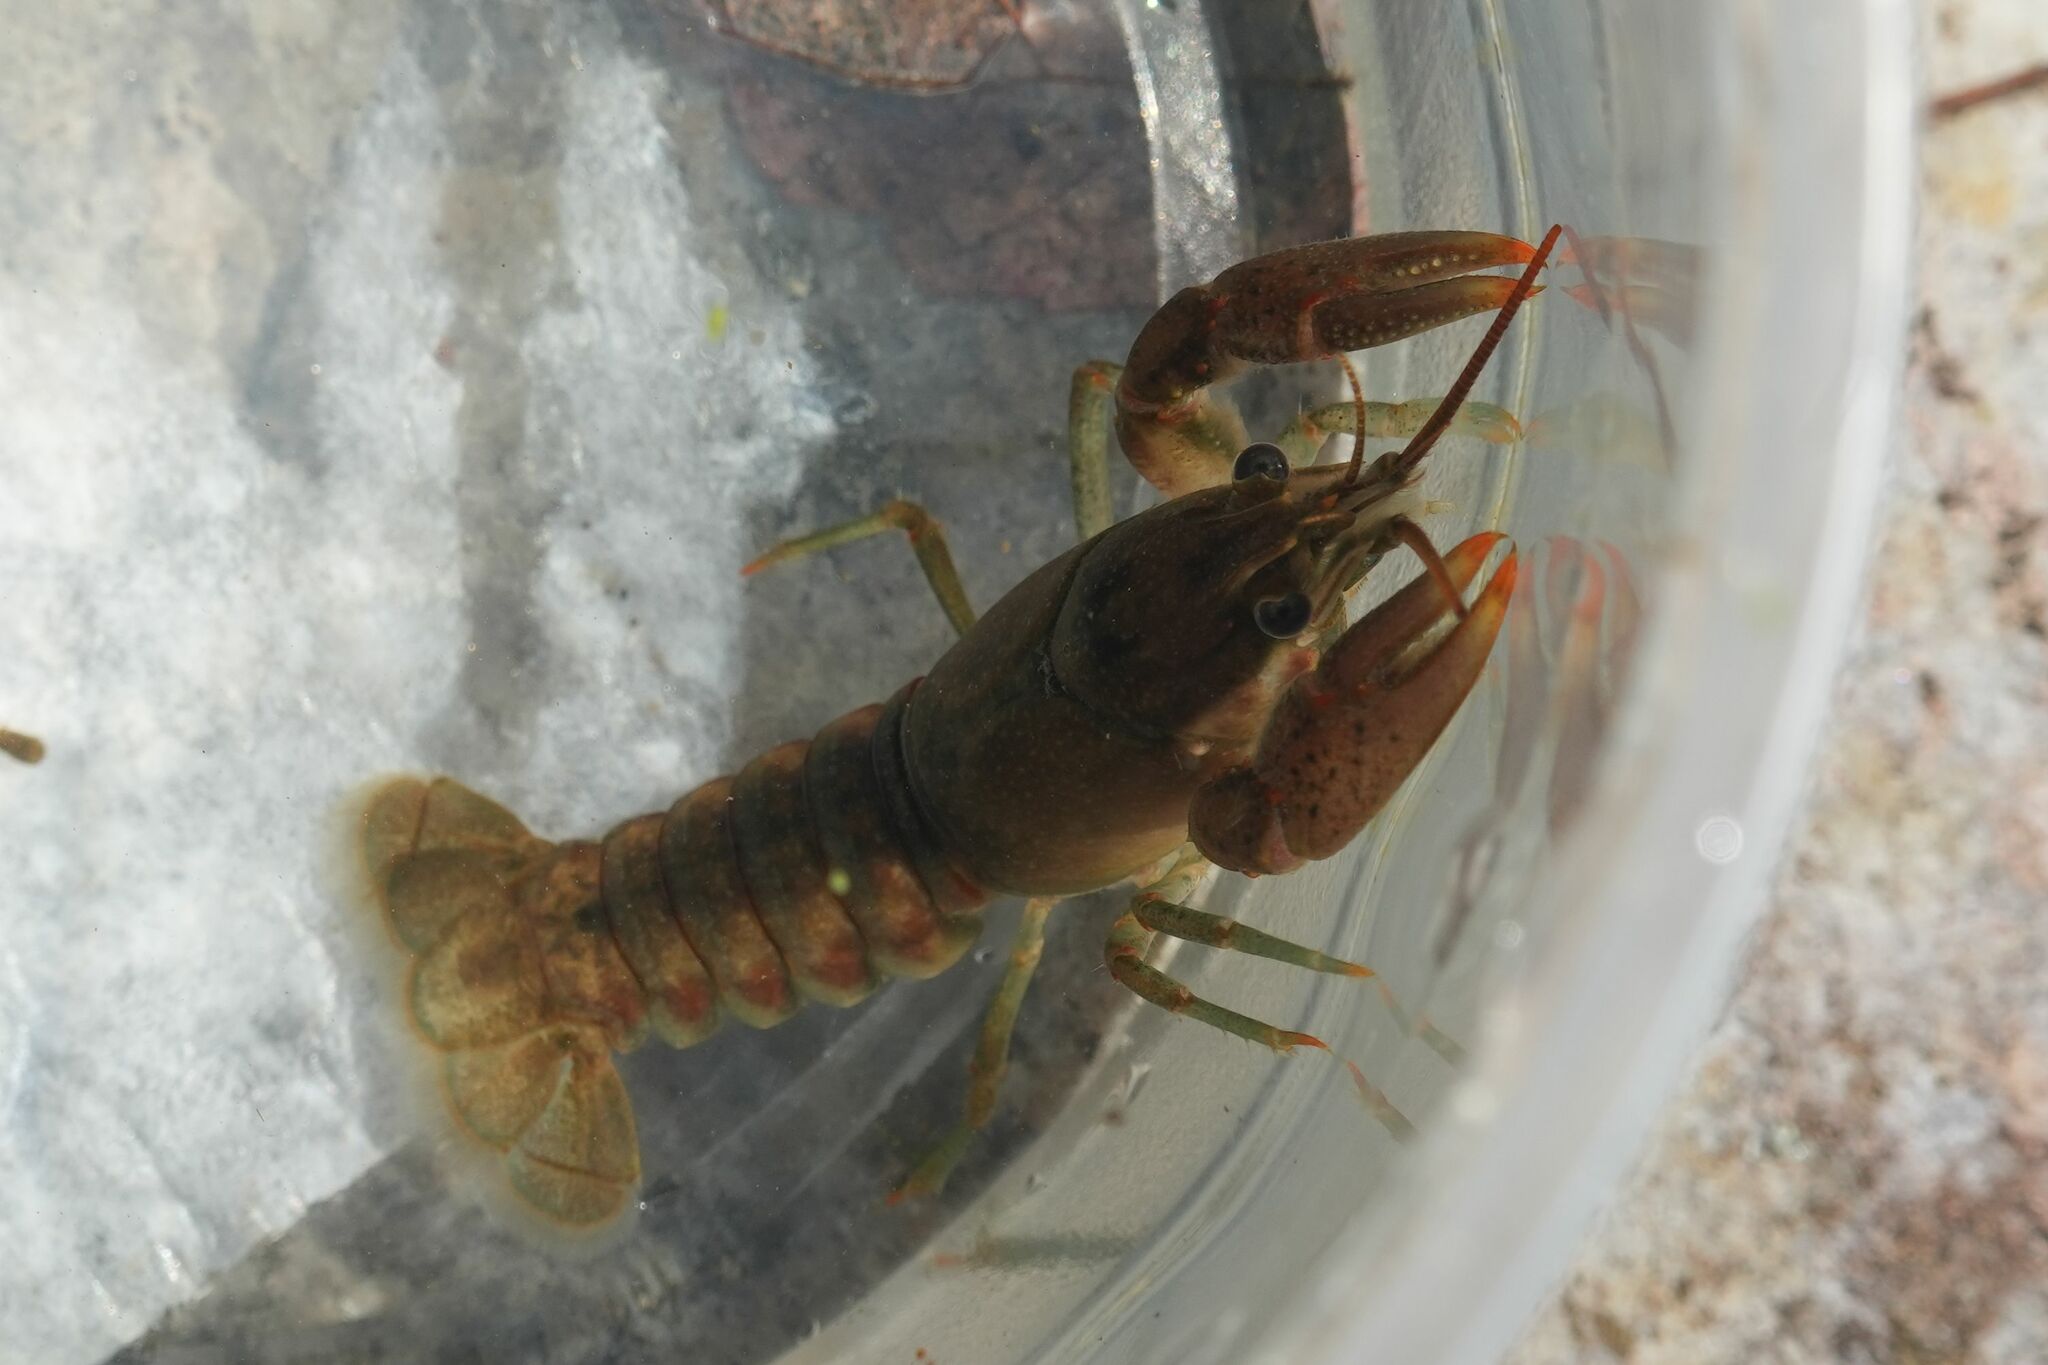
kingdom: Animalia
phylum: Arthropoda
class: Malacostraca
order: Decapoda
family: Cambaridae
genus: Faxonius
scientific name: Faxonius
